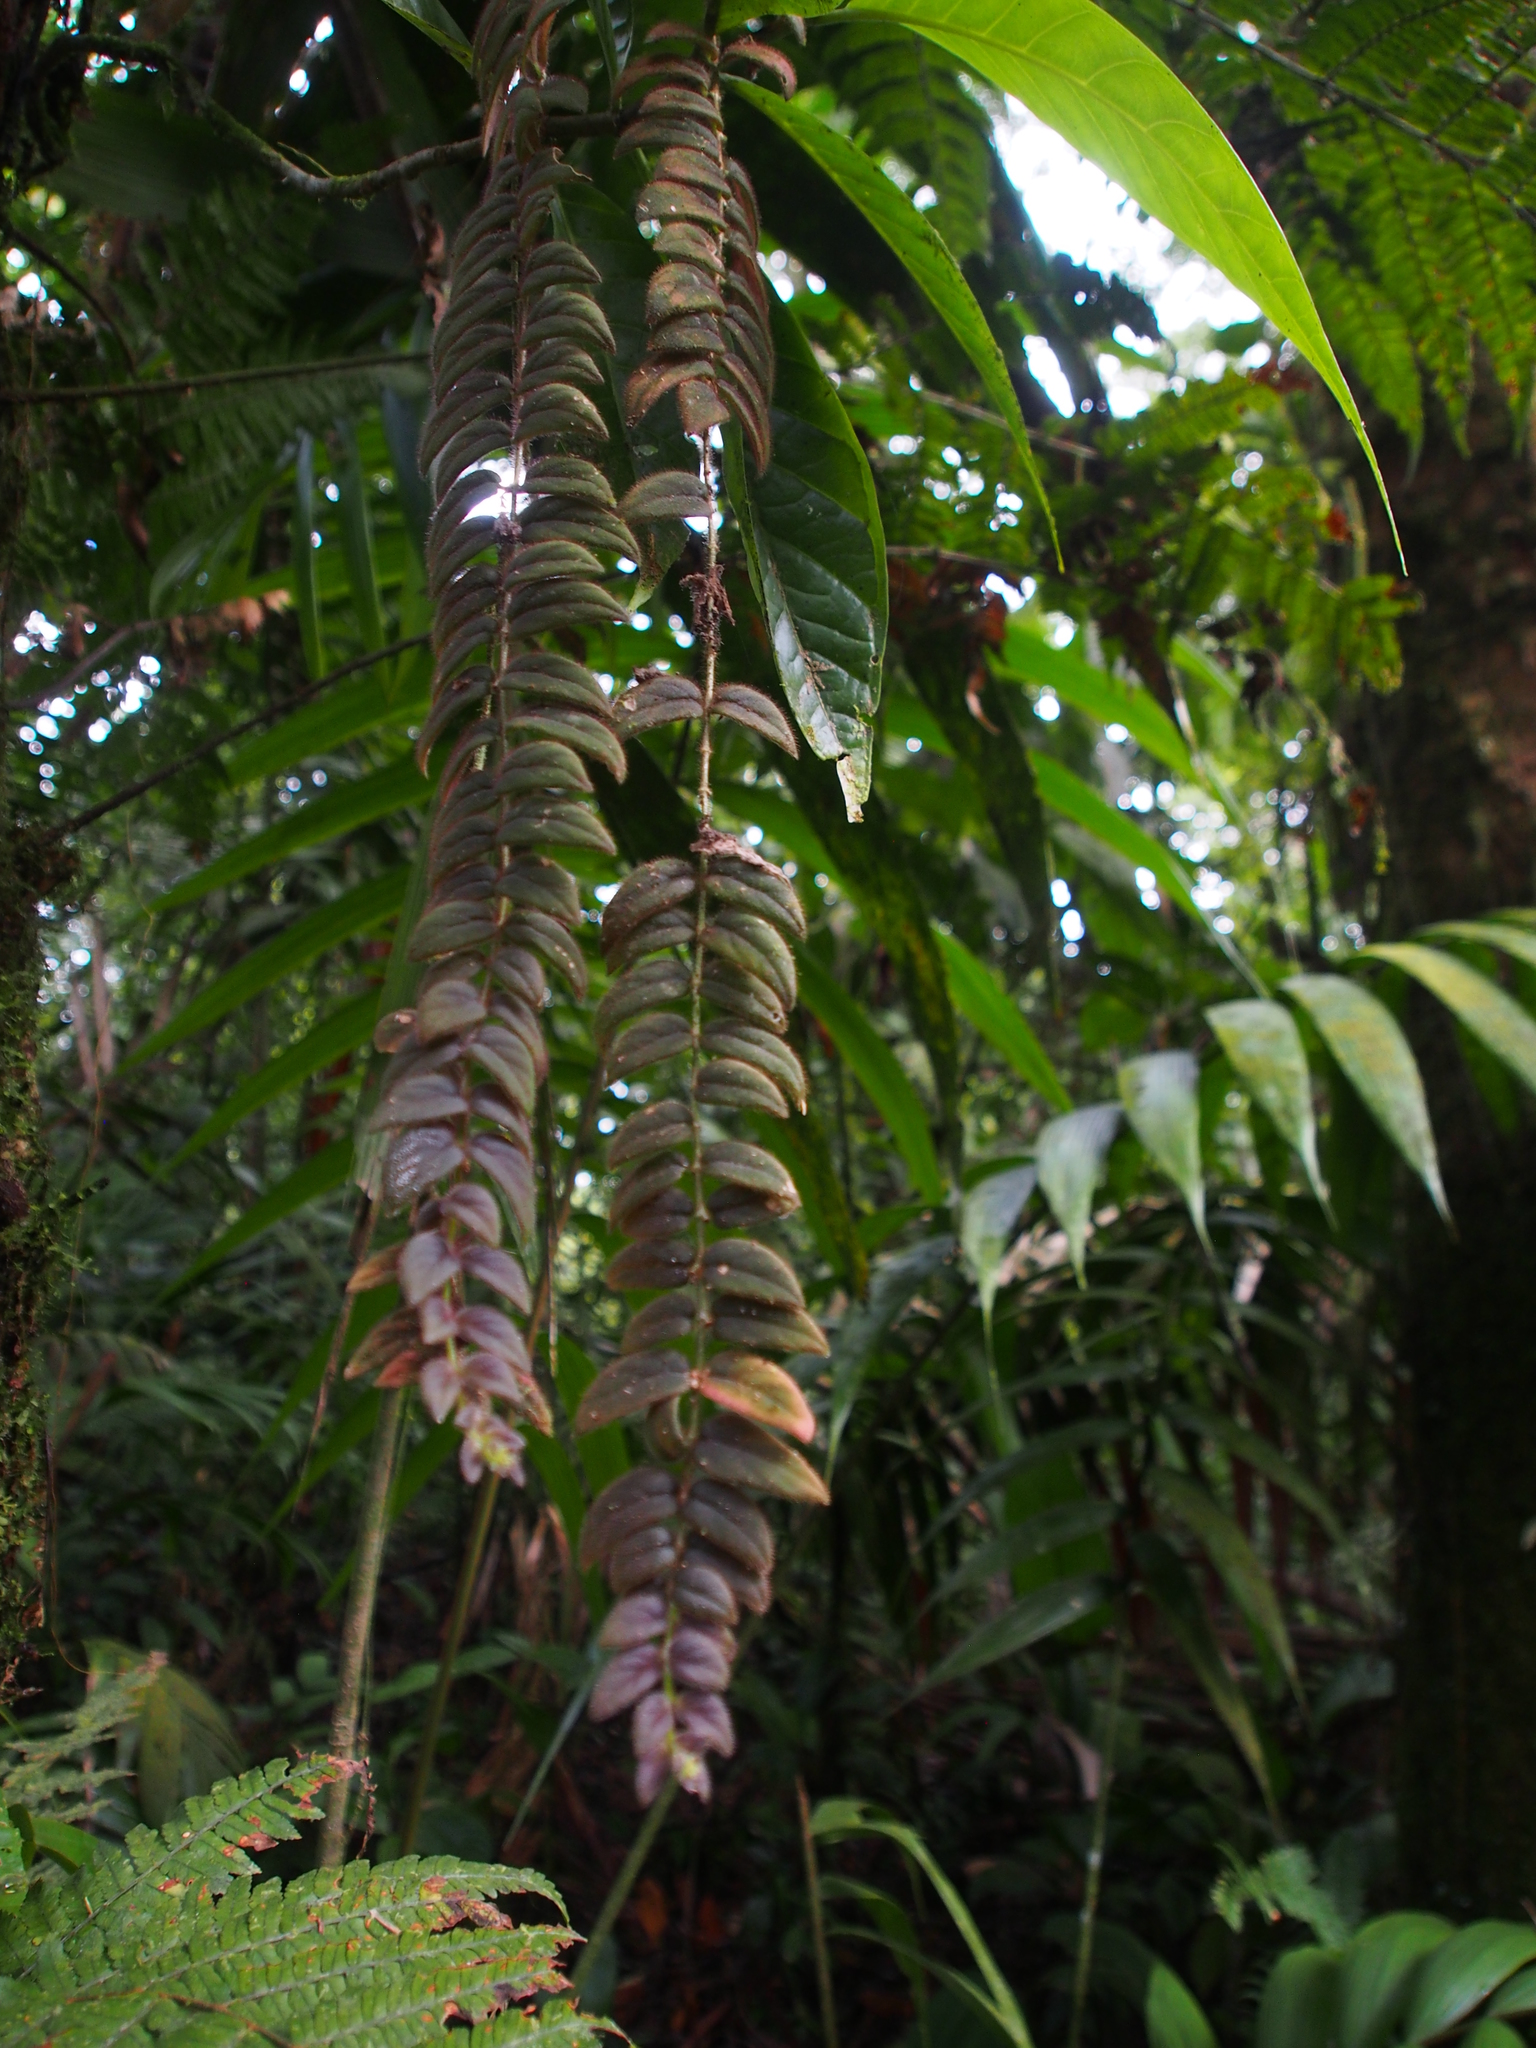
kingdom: Plantae
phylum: Tracheophyta
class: Magnoliopsida
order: Lamiales
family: Gesneriaceae
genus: Columnea
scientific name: Columnea microcalyx
